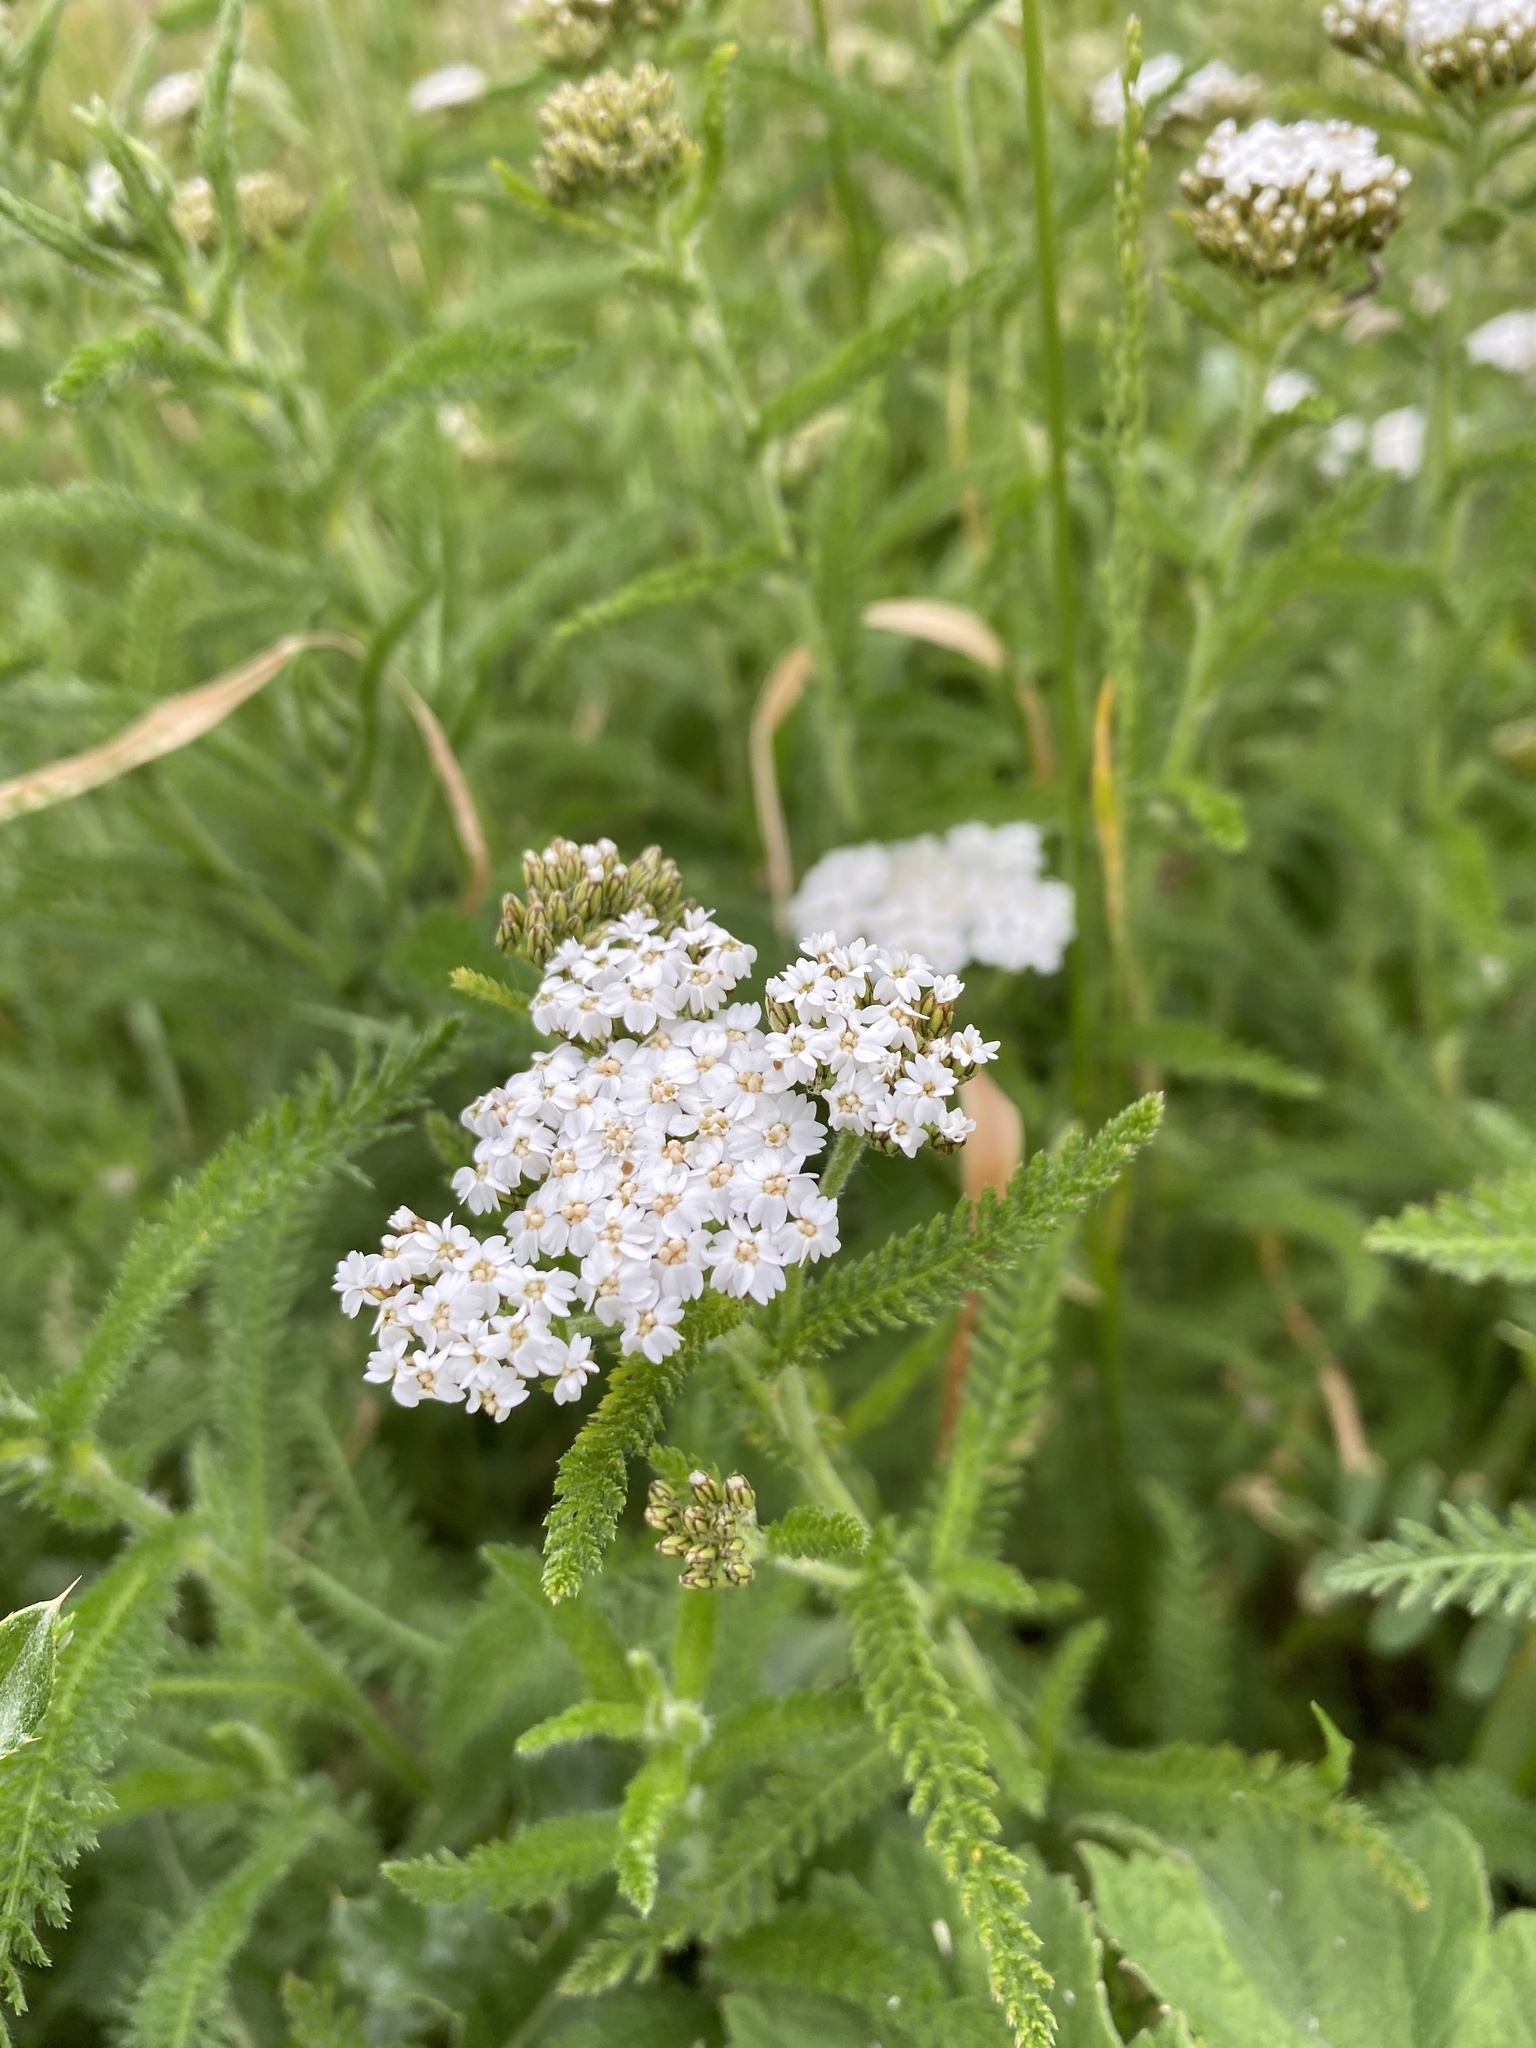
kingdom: Plantae
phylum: Tracheophyta
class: Magnoliopsida
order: Asterales
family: Asteraceae
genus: Achillea
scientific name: Achillea millefolium
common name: Yarrow
